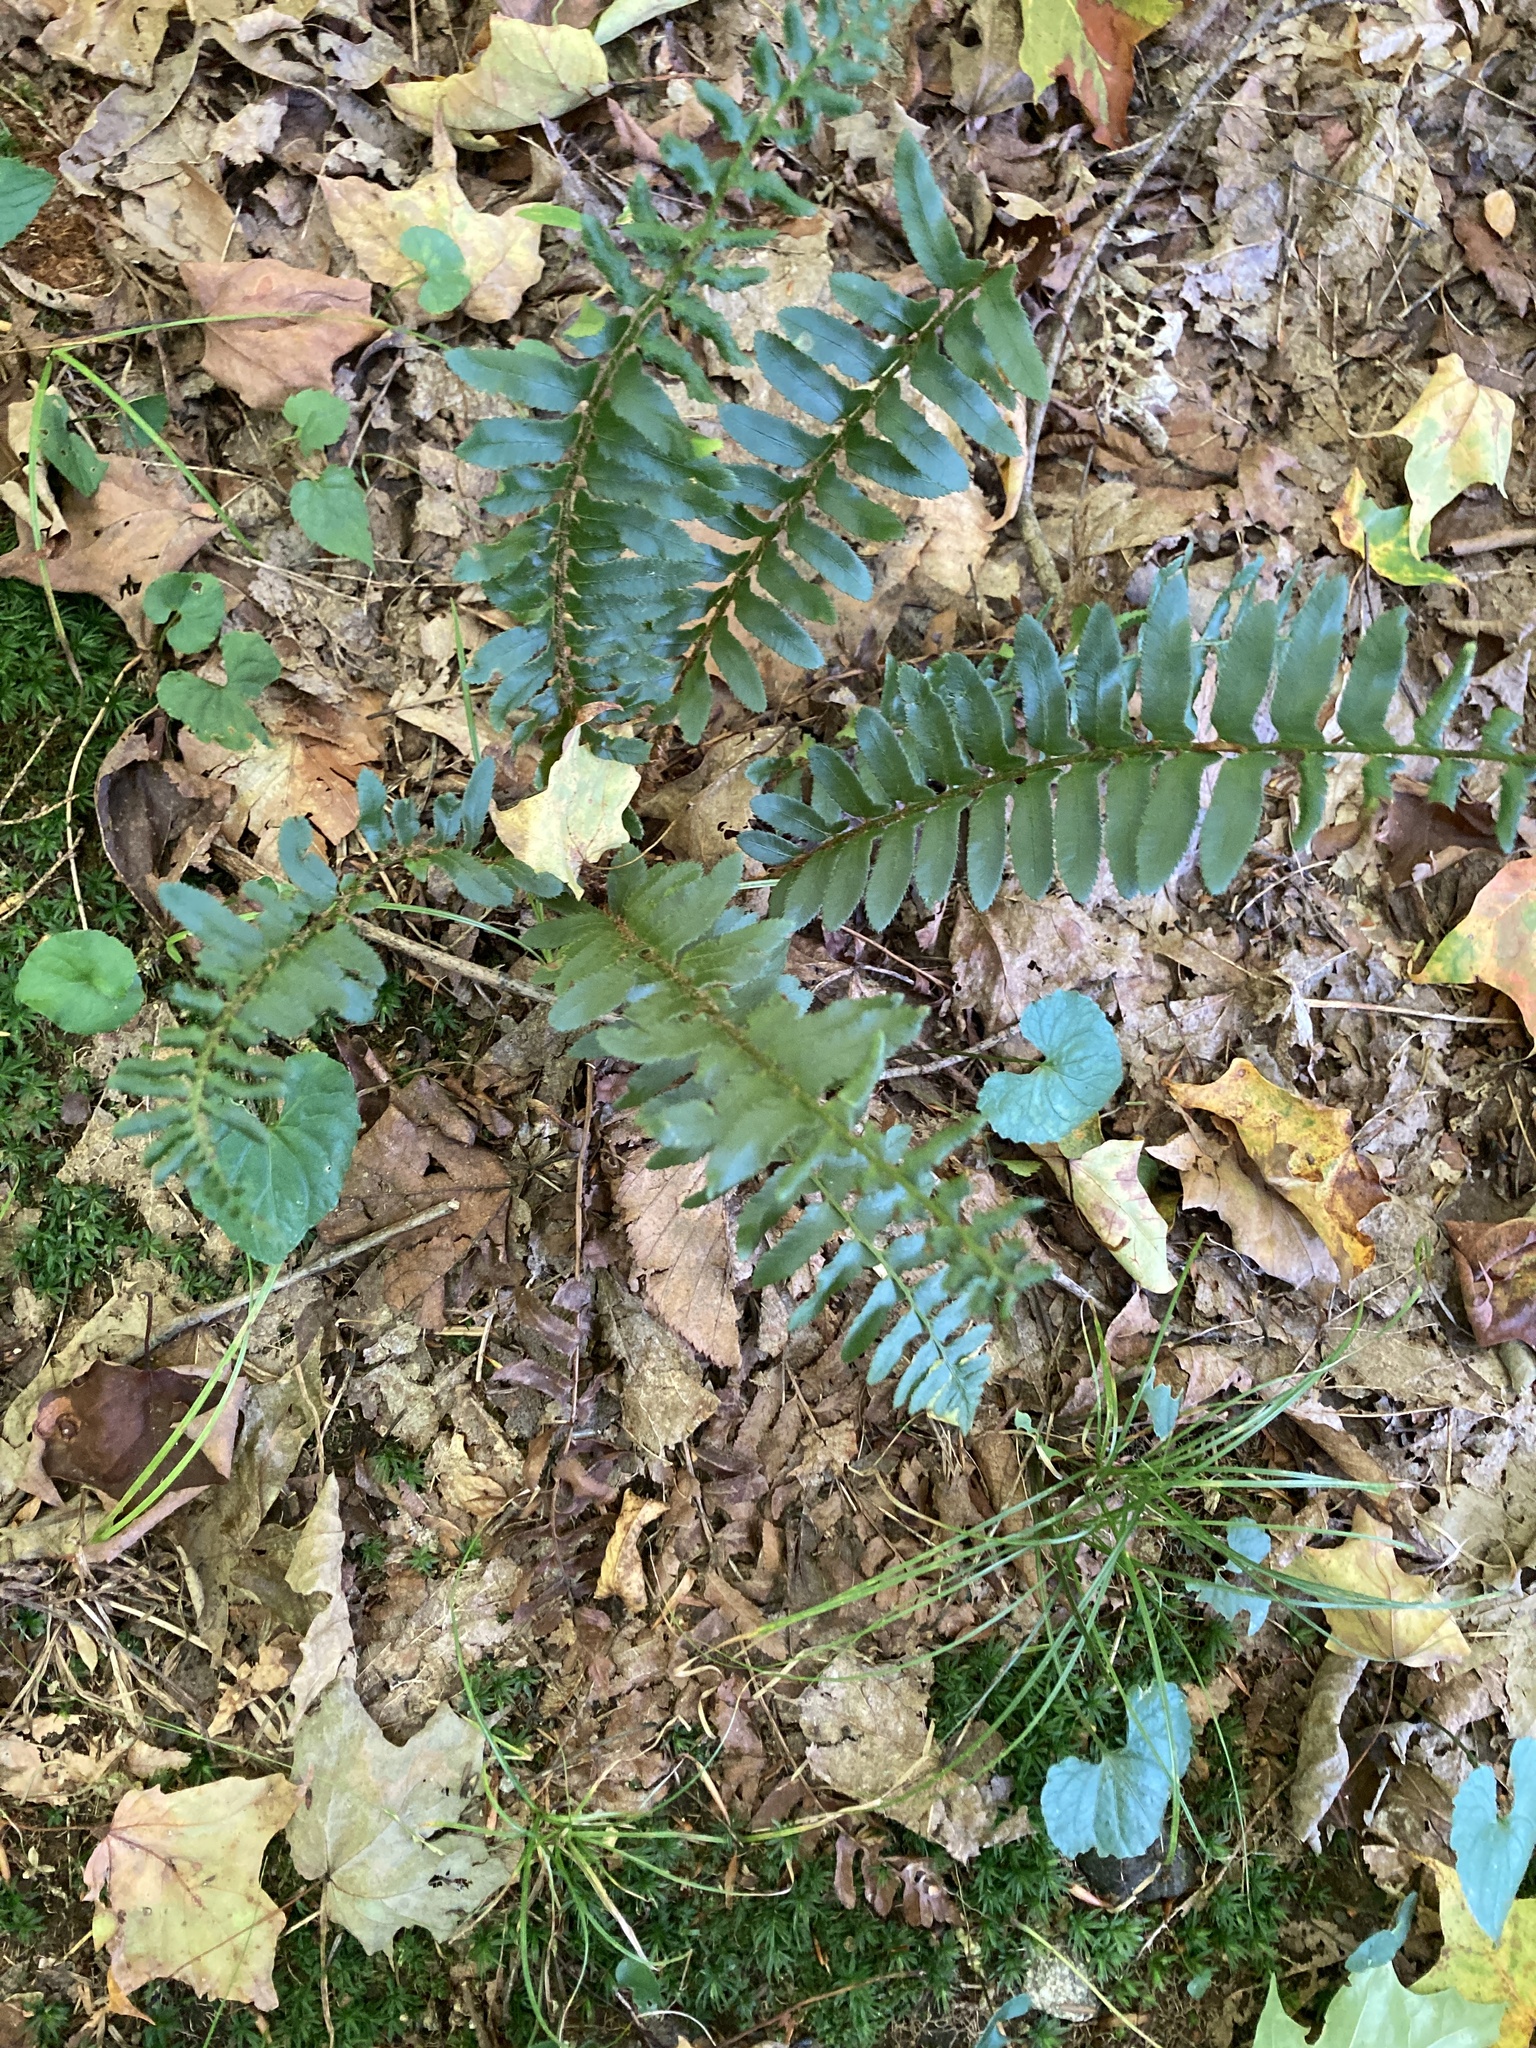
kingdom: Plantae
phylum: Tracheophyta
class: Polypodiopsida
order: Polypodiales
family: Dryopteridaceae
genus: Polystichum
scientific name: Polystichum acrostichoides
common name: Christmas fern
